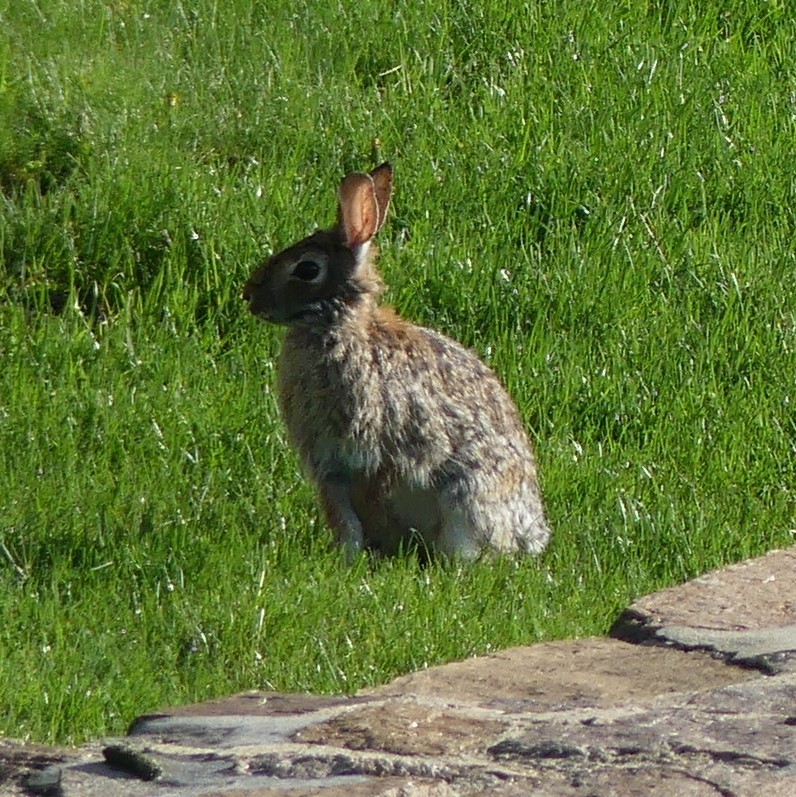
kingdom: Animalia
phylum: Chordata
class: Mammalia
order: Lagomorpha
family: Leporidae
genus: Sylvilagus
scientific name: Sylvilagus floridanus
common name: Eastern cottontail
